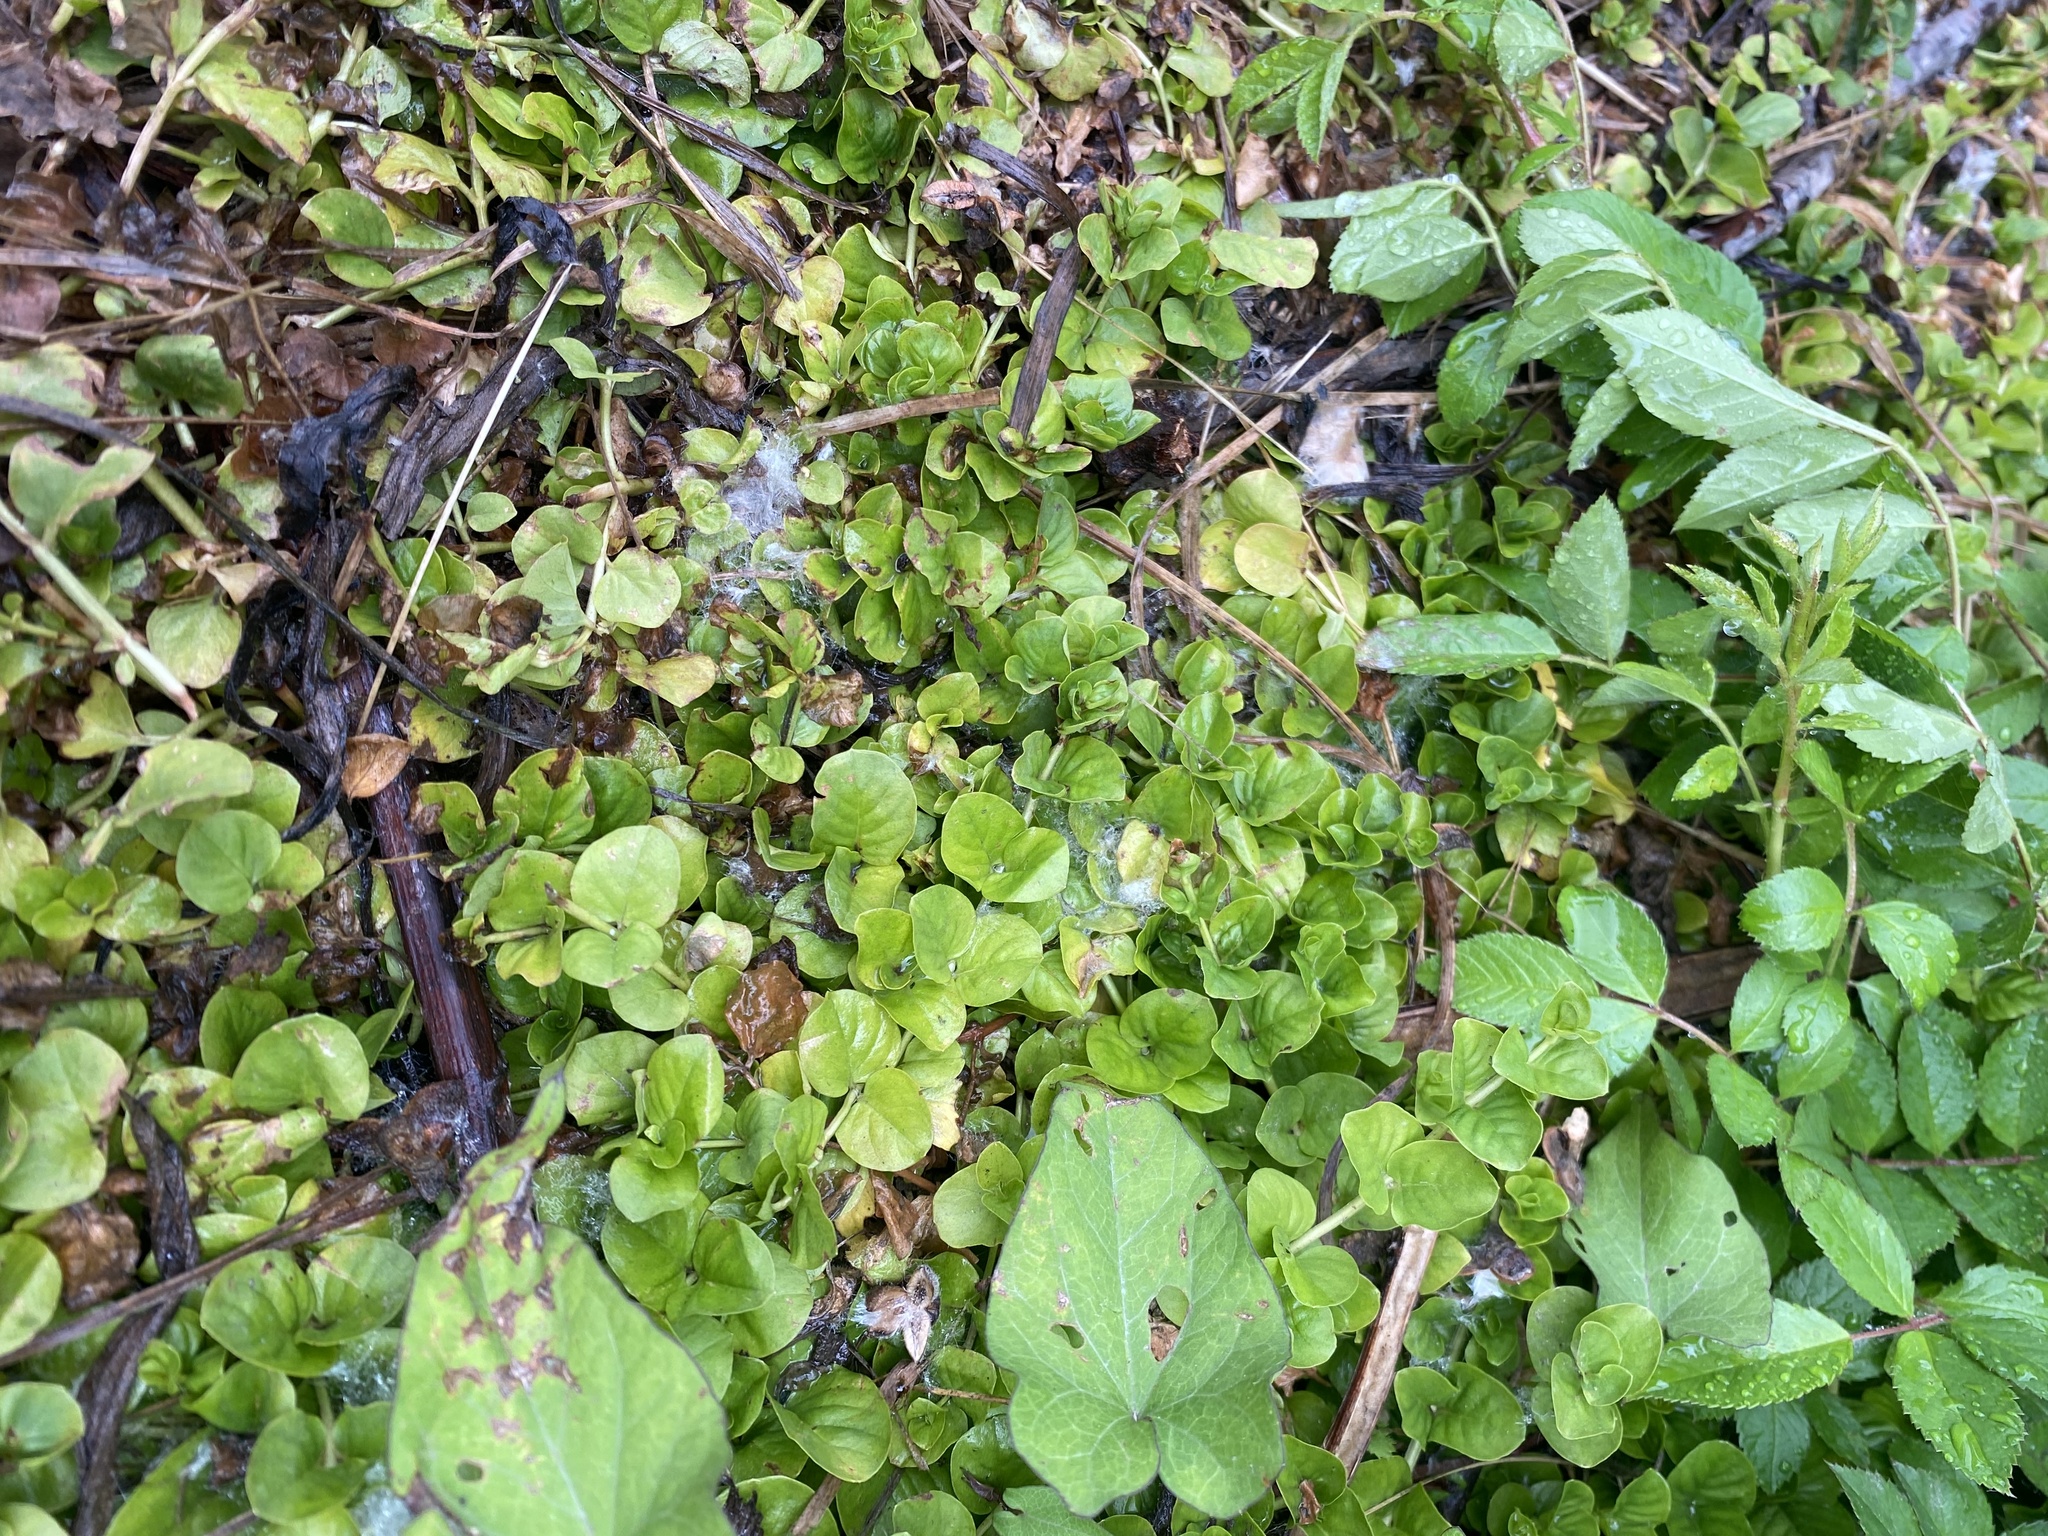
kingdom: Plantae
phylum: Tracheophyta
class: Magnoliopsida
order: Ericales
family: Primulaceae
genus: Lysimachia
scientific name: Lysimachia nummularia
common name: Moneywort
